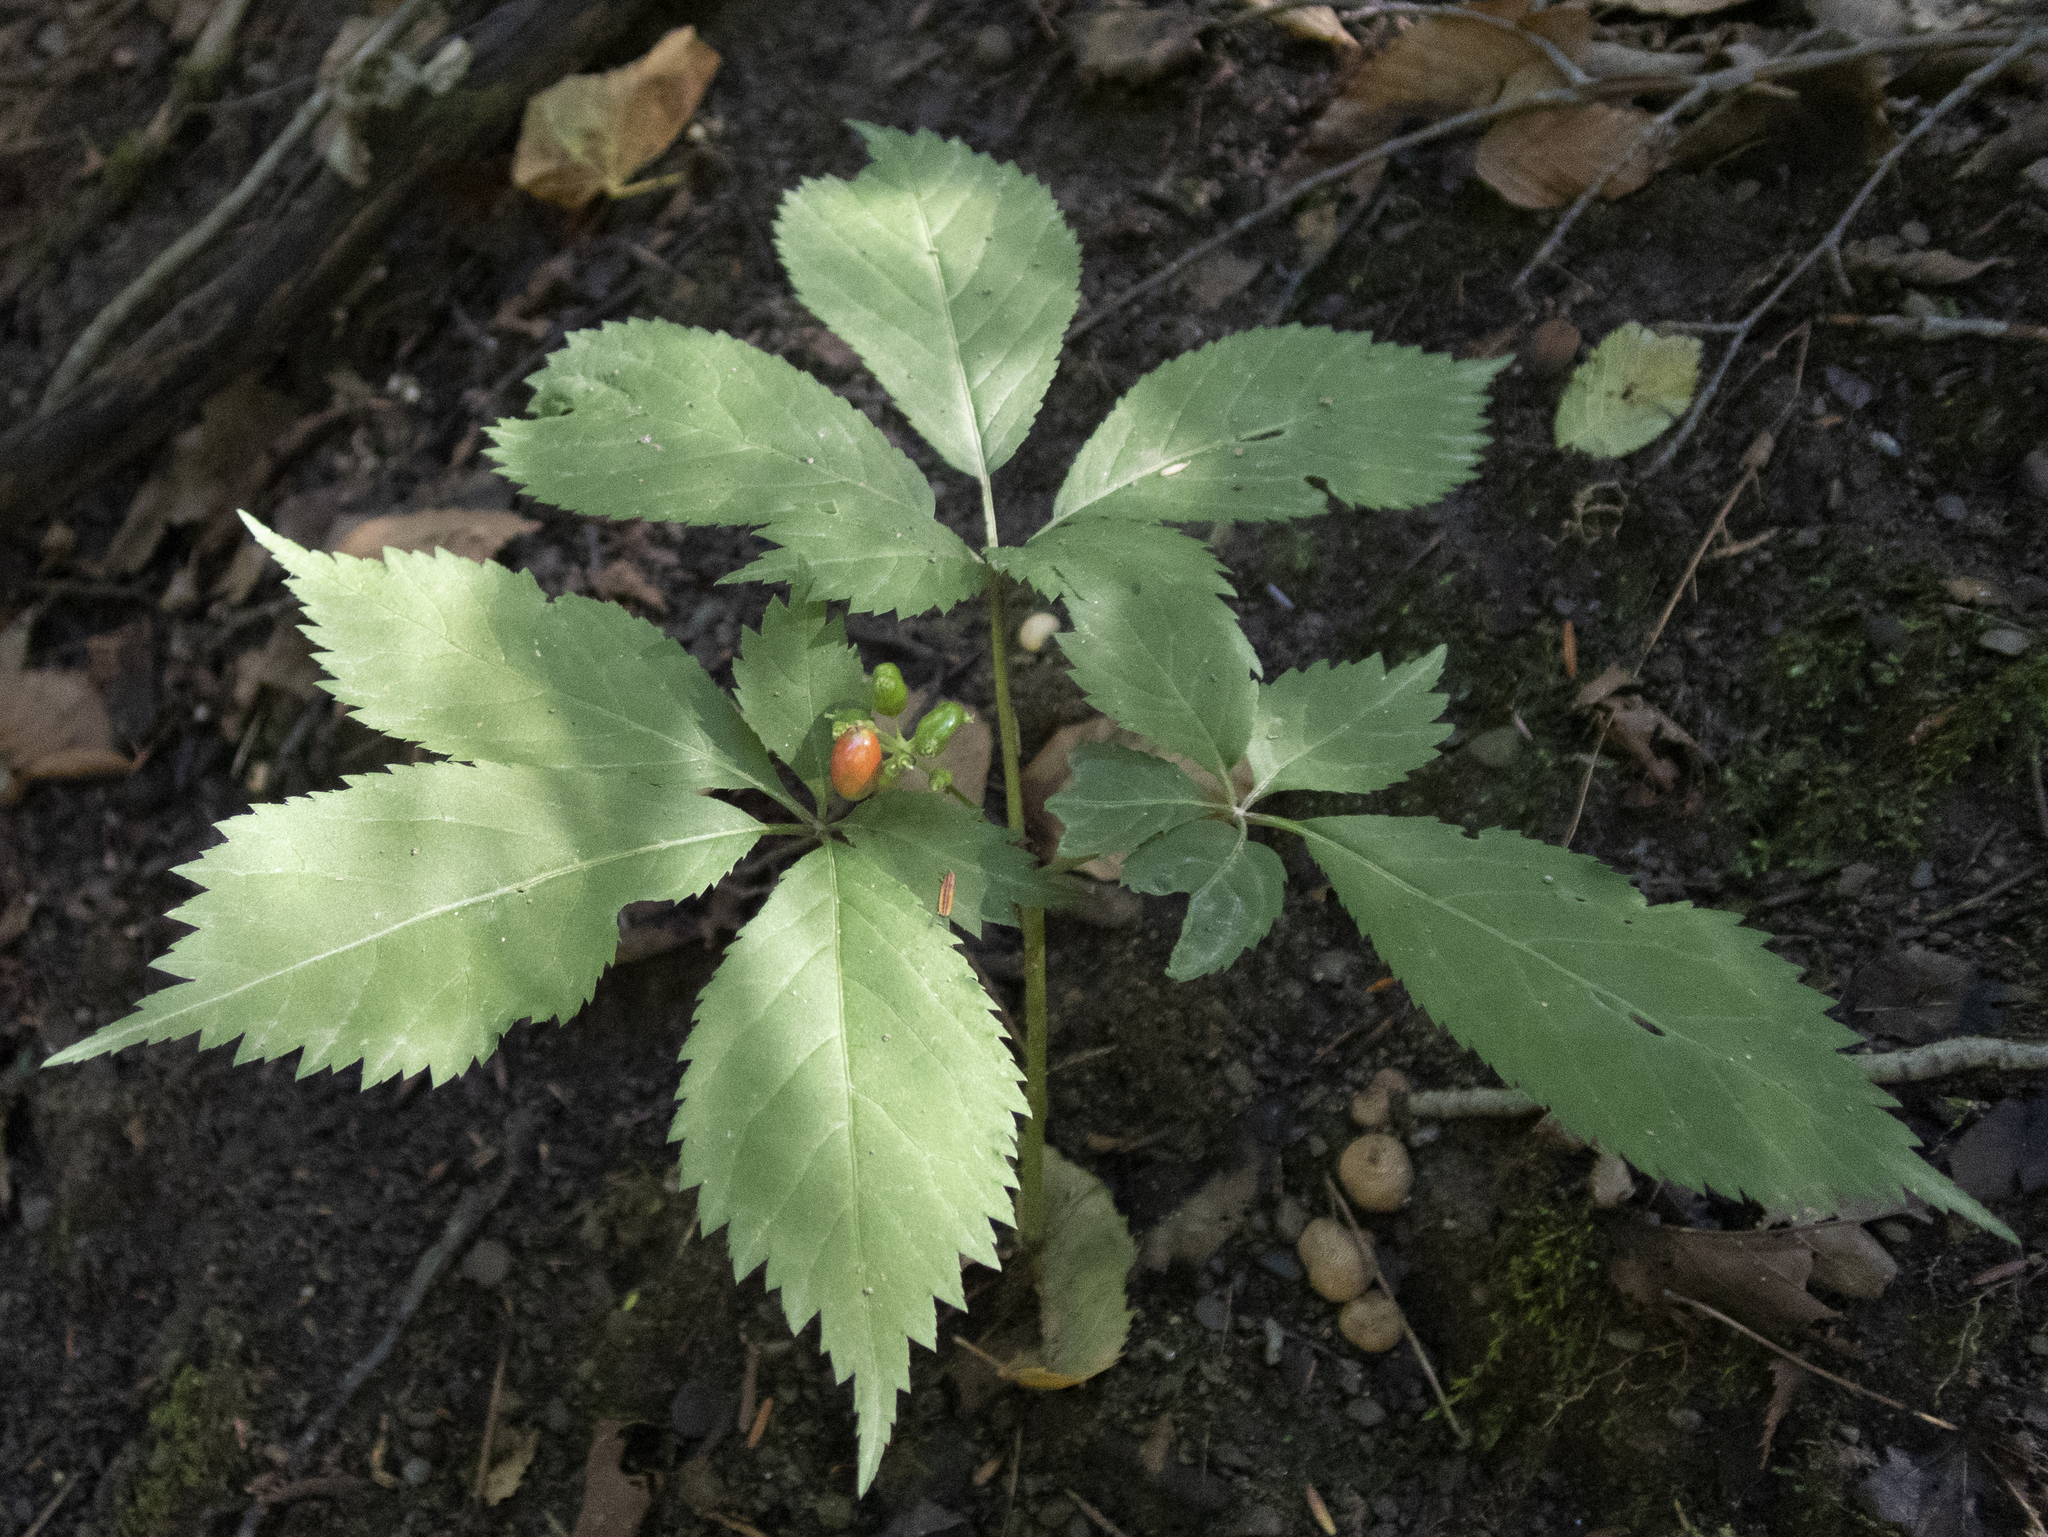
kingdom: Plantae
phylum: Tracheophyta
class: Magnoliopsida
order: Apiales
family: Araliaceae
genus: Panax
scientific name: Panax quinquefolius
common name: American ginseng
